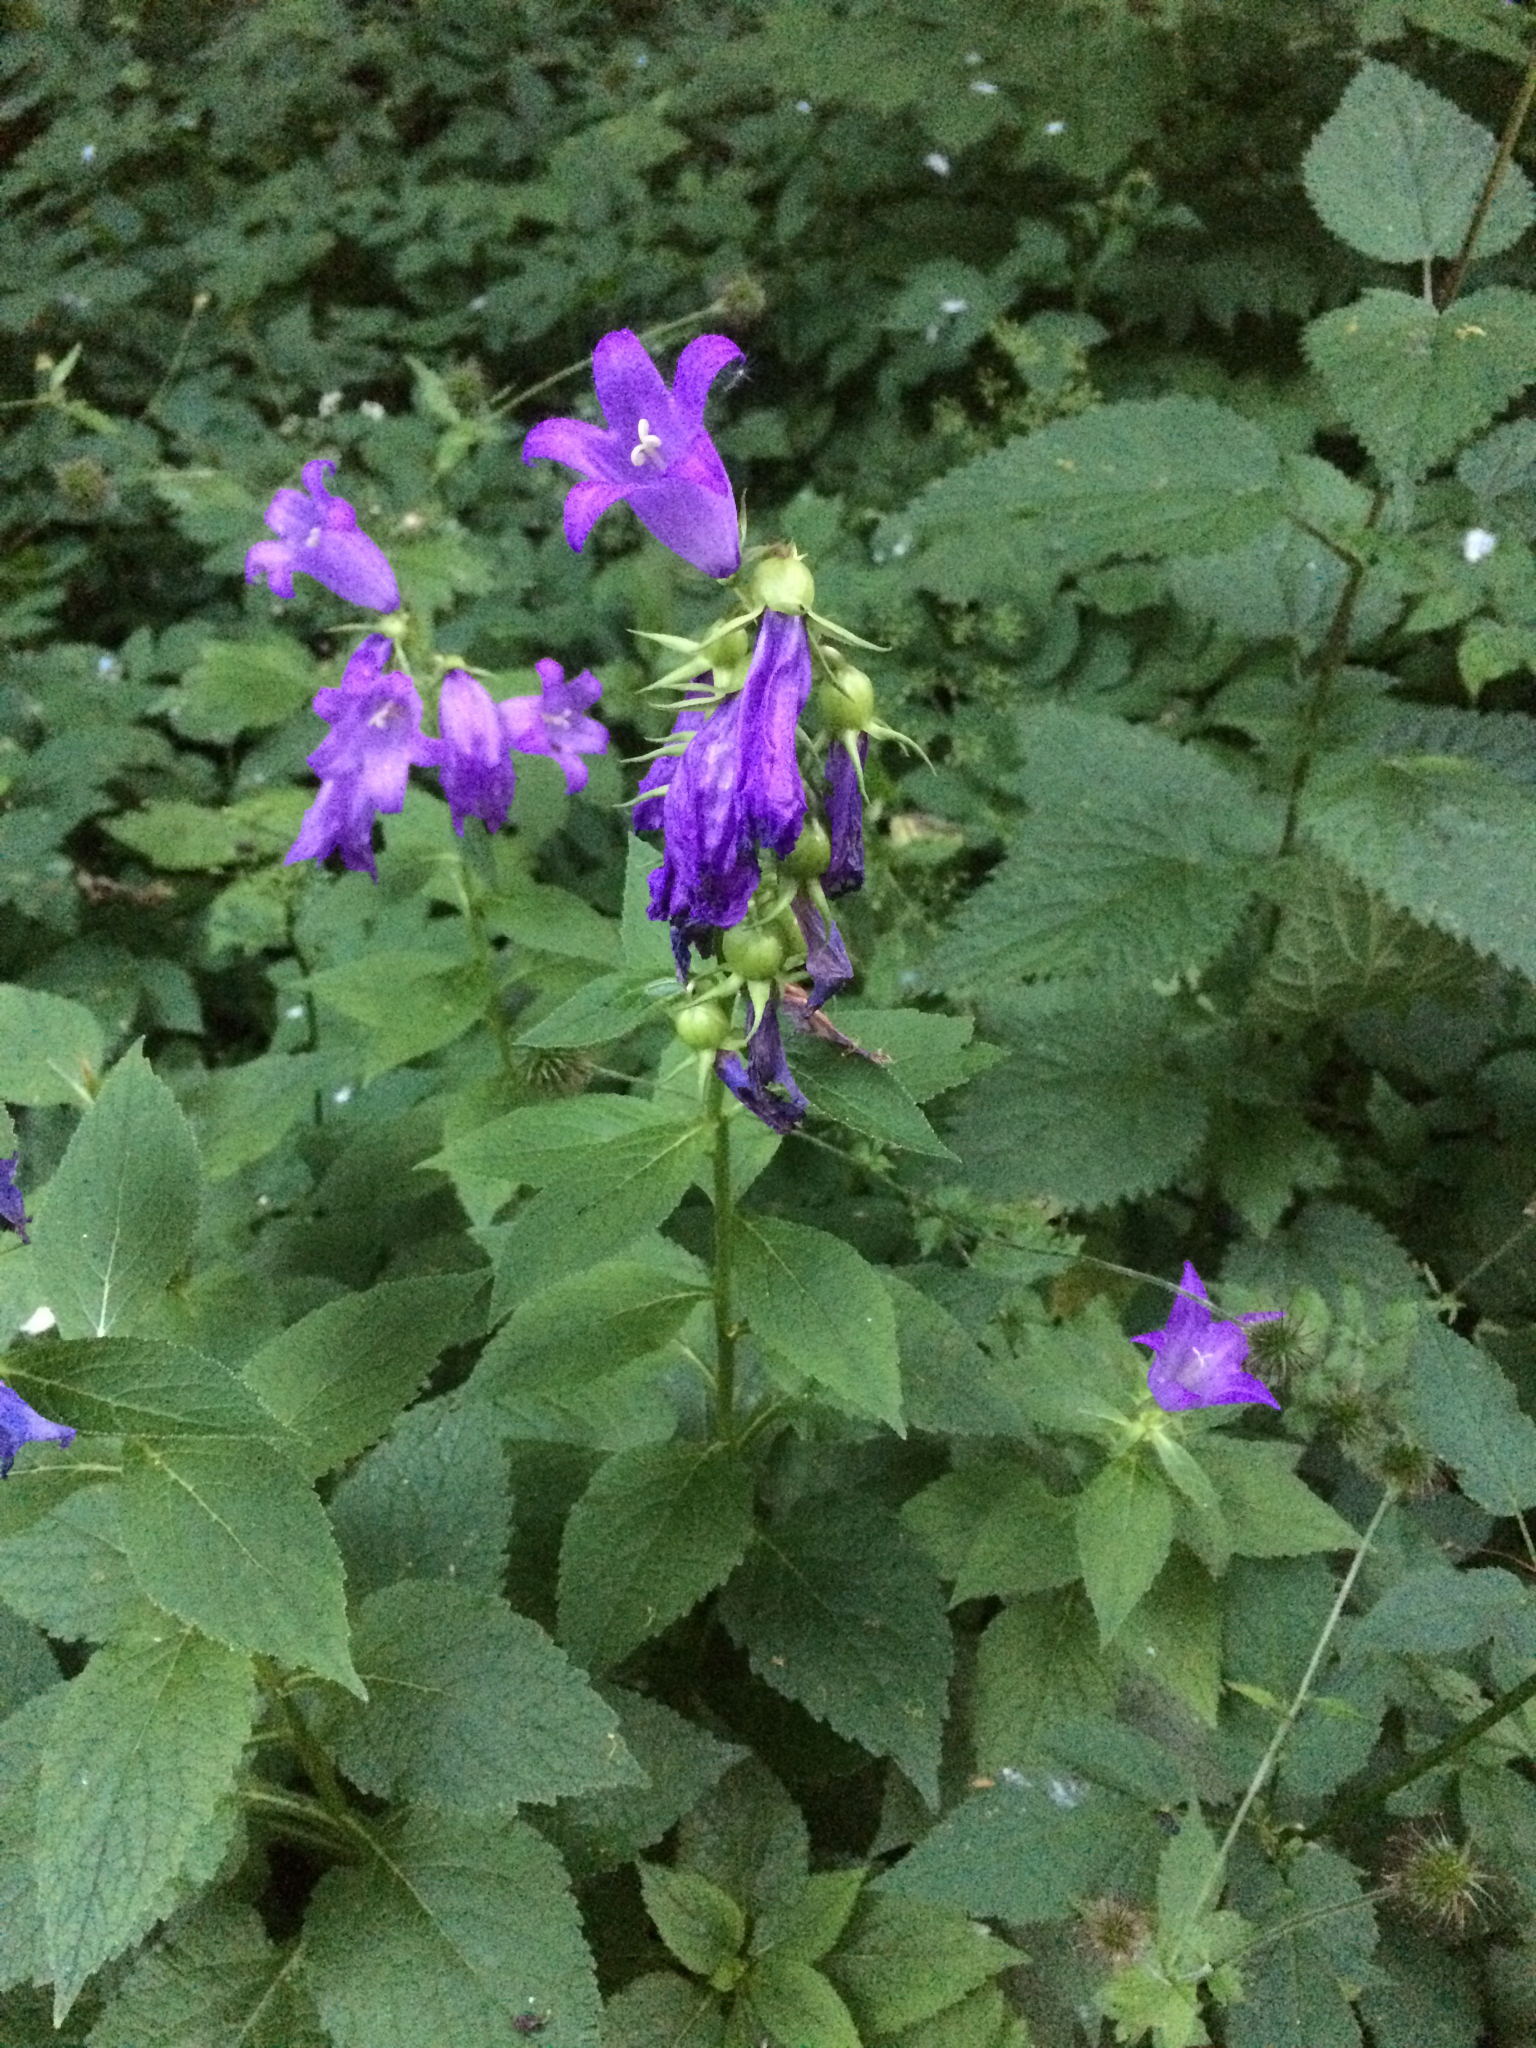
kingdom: Plantae
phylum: Tracheophyta
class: Magnoliopsida
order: Asterales
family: Campanulaceae
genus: Campanula
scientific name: Campanula latifolia
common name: Giant bellflower
